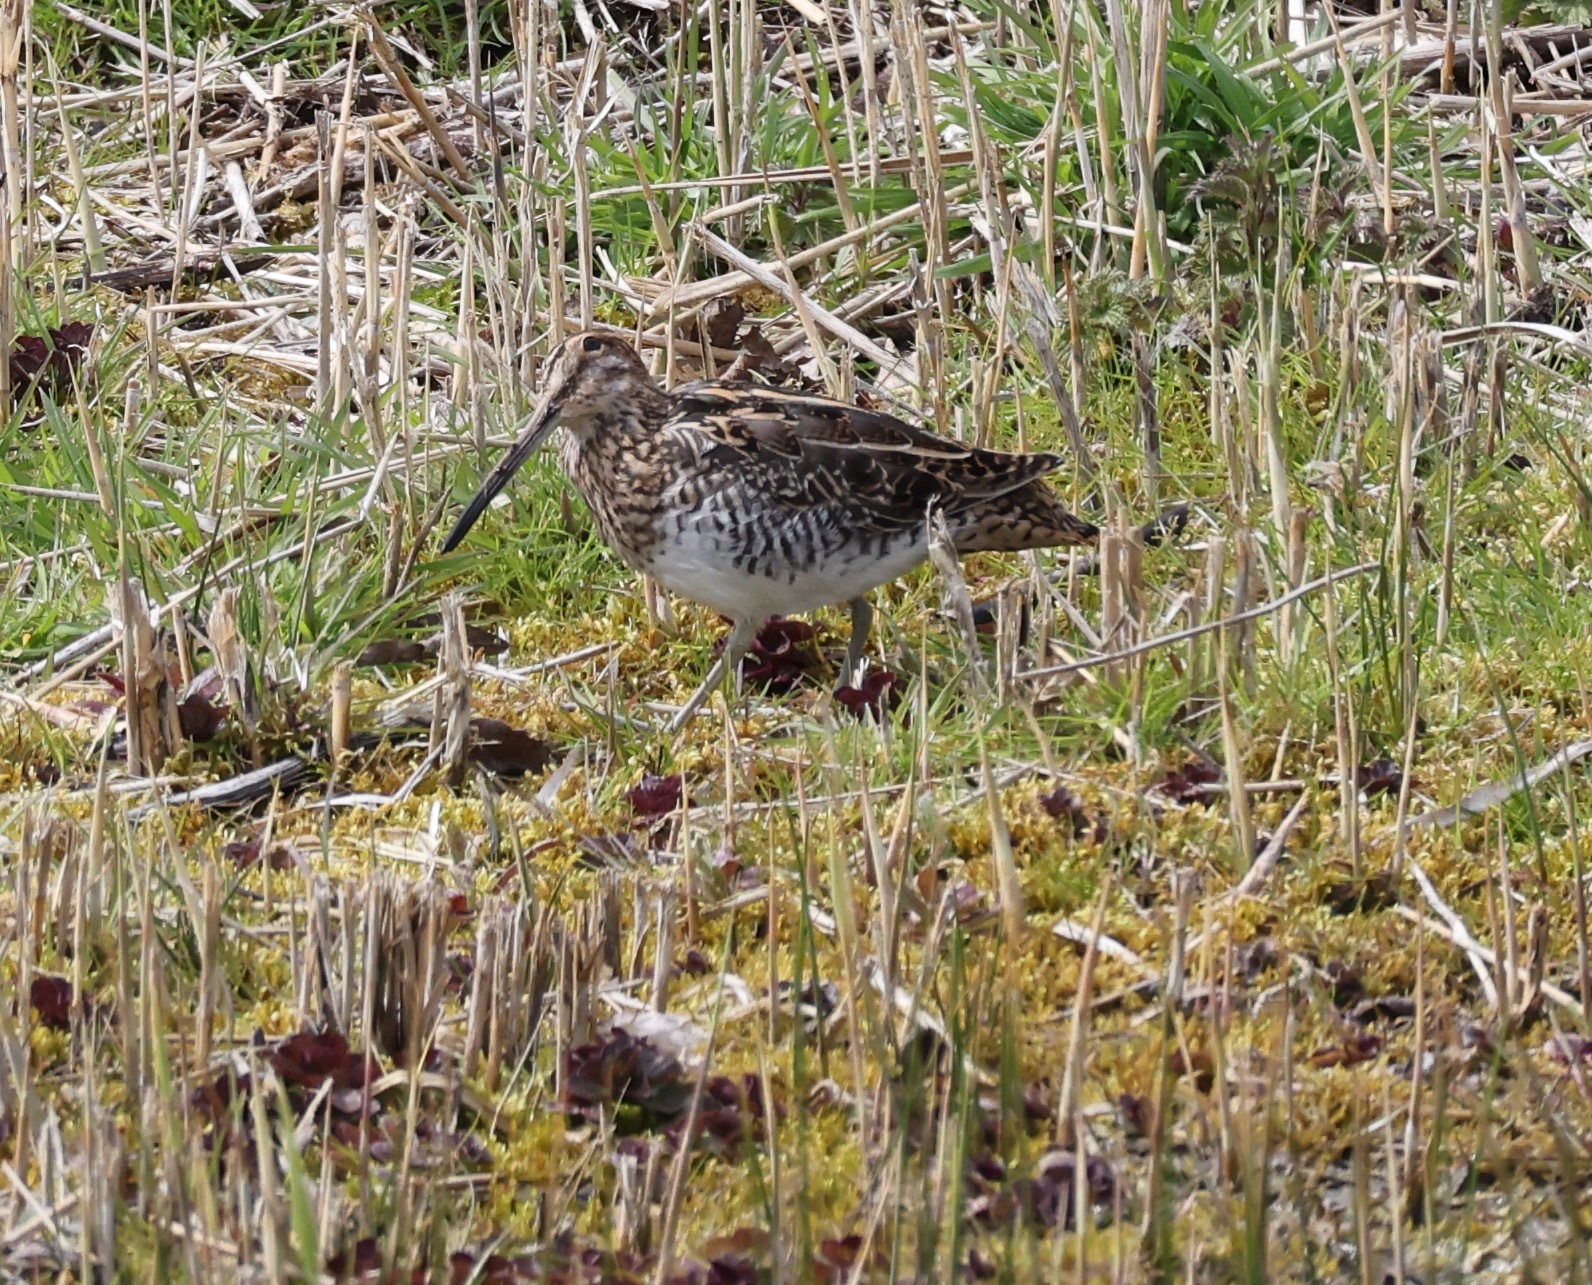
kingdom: Animalia
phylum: Chordata
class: Aves
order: Charadriiformes
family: Scolopacidae
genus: Gallinago
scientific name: Gallinago gallinago
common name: Common snipe
